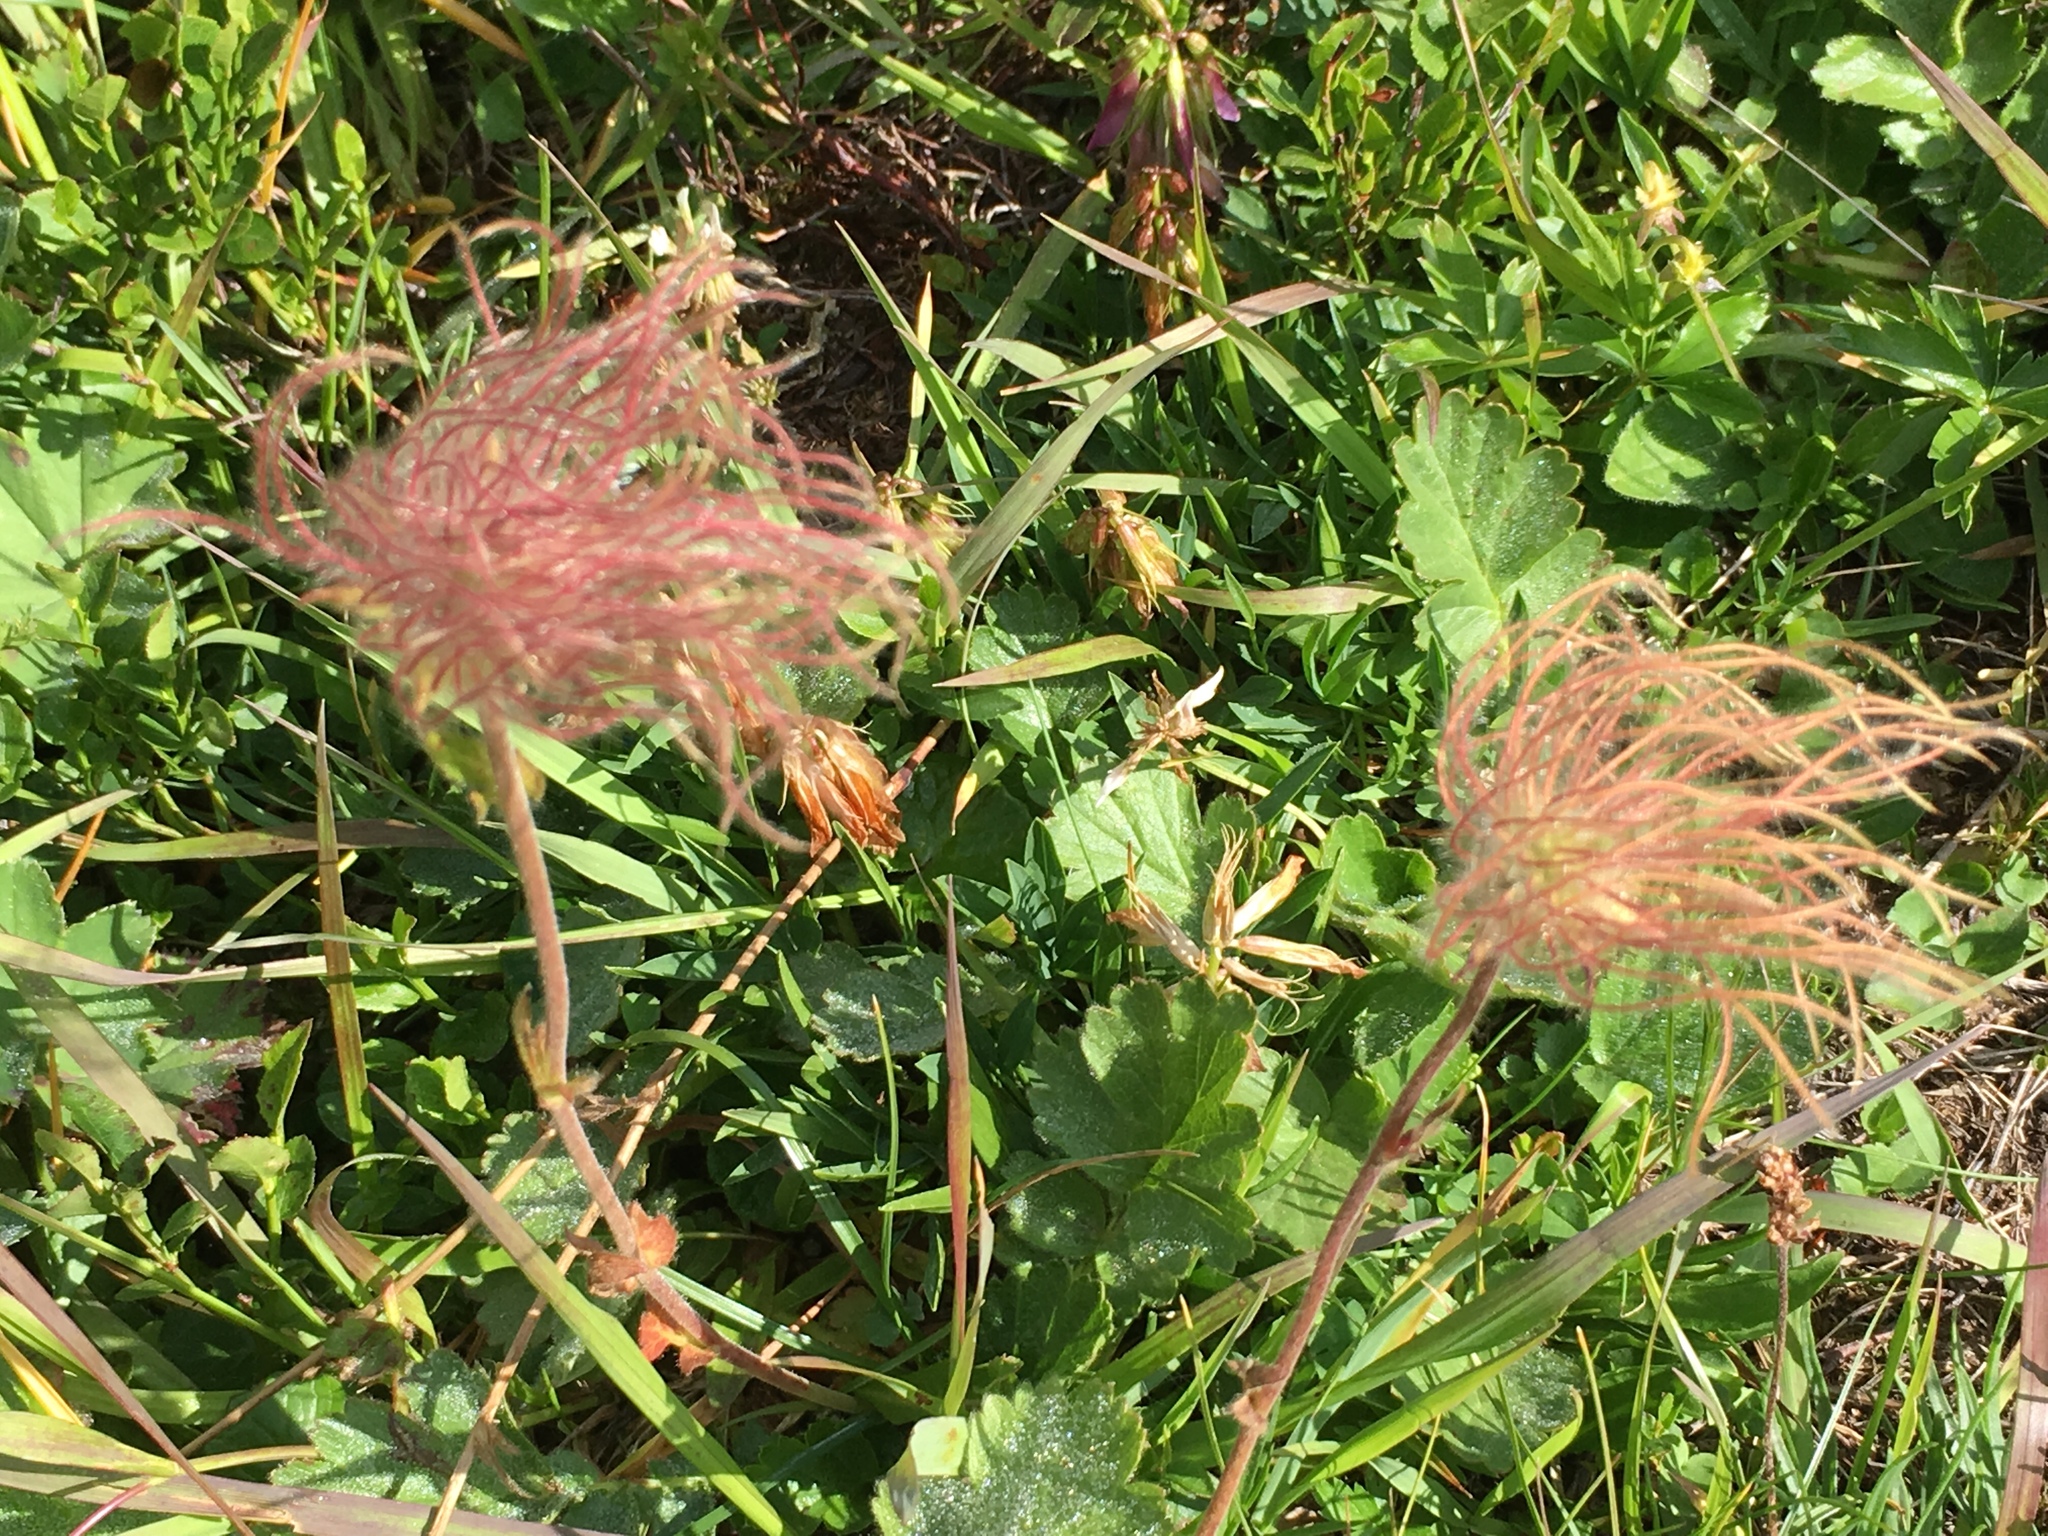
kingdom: Plantae
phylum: Tracheophyta
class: Magnoliopsida
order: Rosales
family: Rosaceae
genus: Geum
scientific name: Geum montanum
